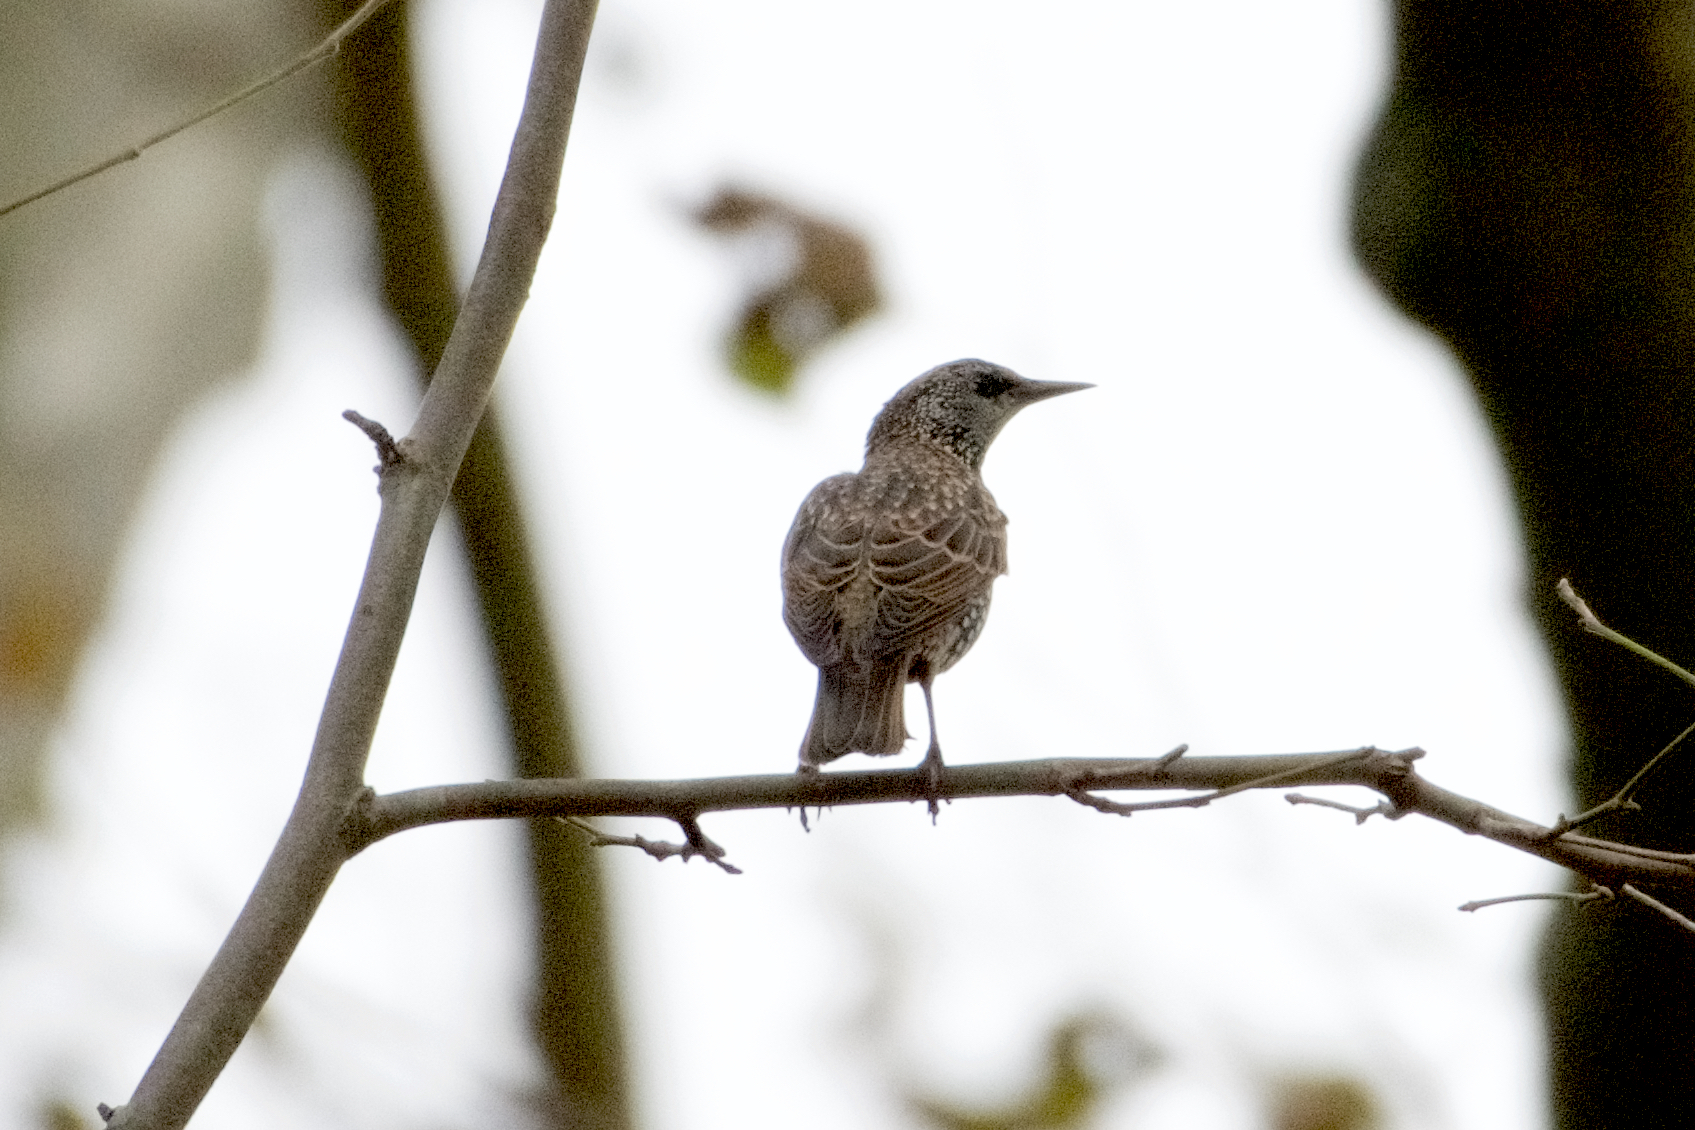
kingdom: Animalia
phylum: Chordata
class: Aves
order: Passeriformes
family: Sturnidae
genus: Sturnus
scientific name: Sturnus vulgaris
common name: Common starling
